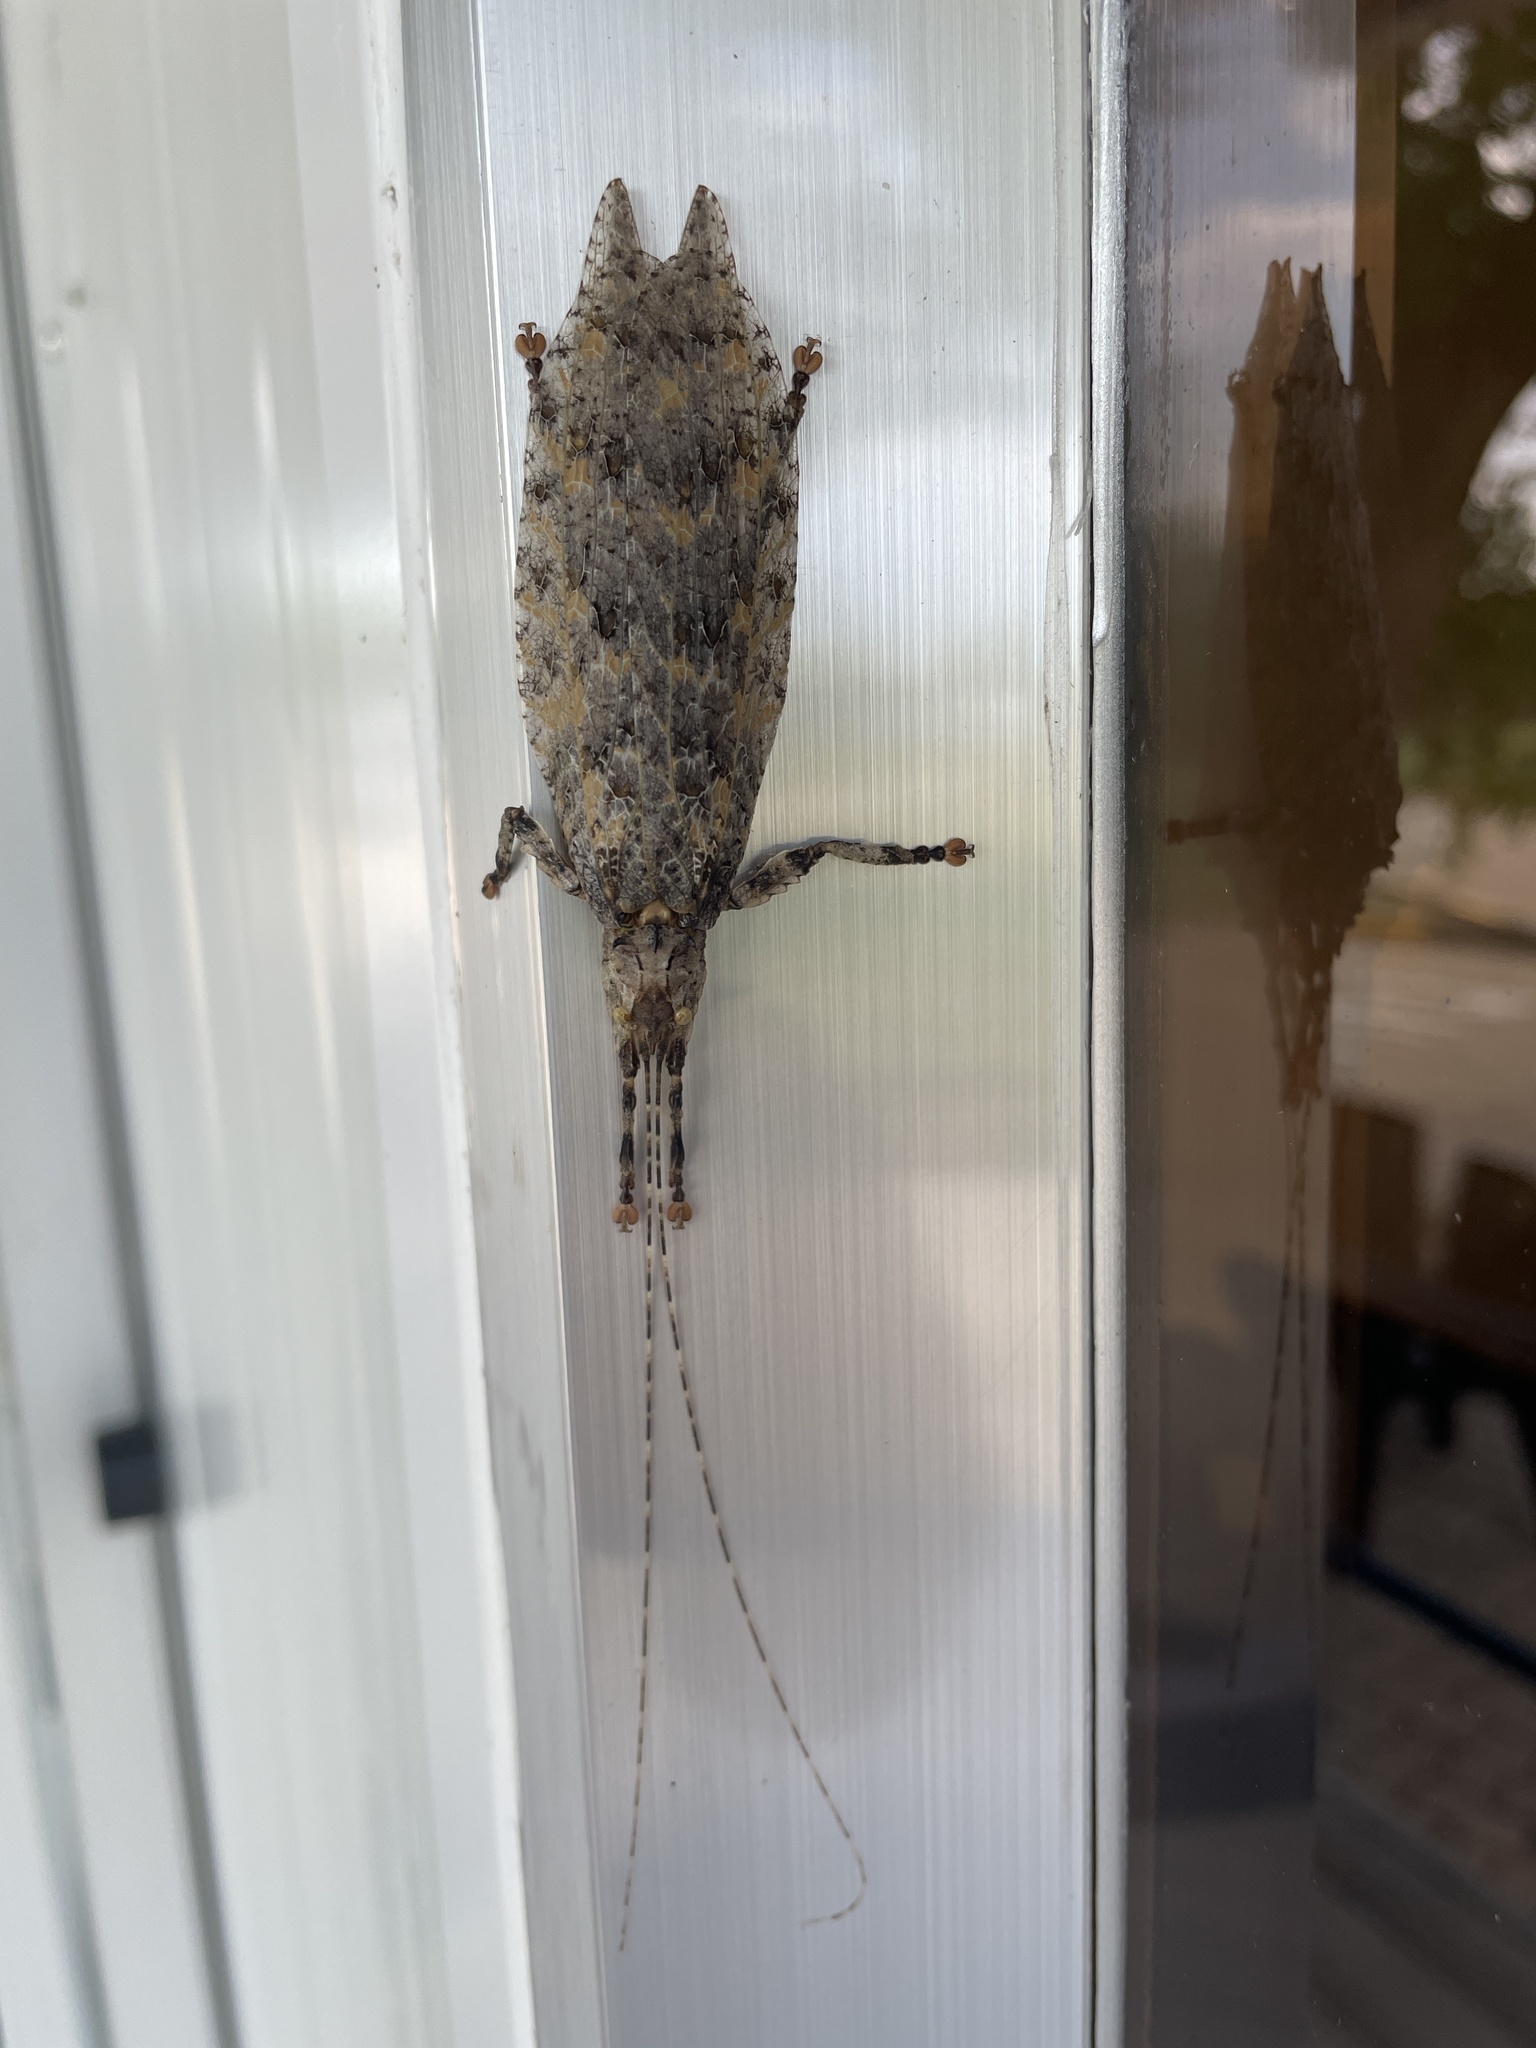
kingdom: Animalia
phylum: Arthropoda
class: Insecta
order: Orthoptera
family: Tettigoniidae
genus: Cymatomera
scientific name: Cymatomera denticollis
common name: Common bark katydid
